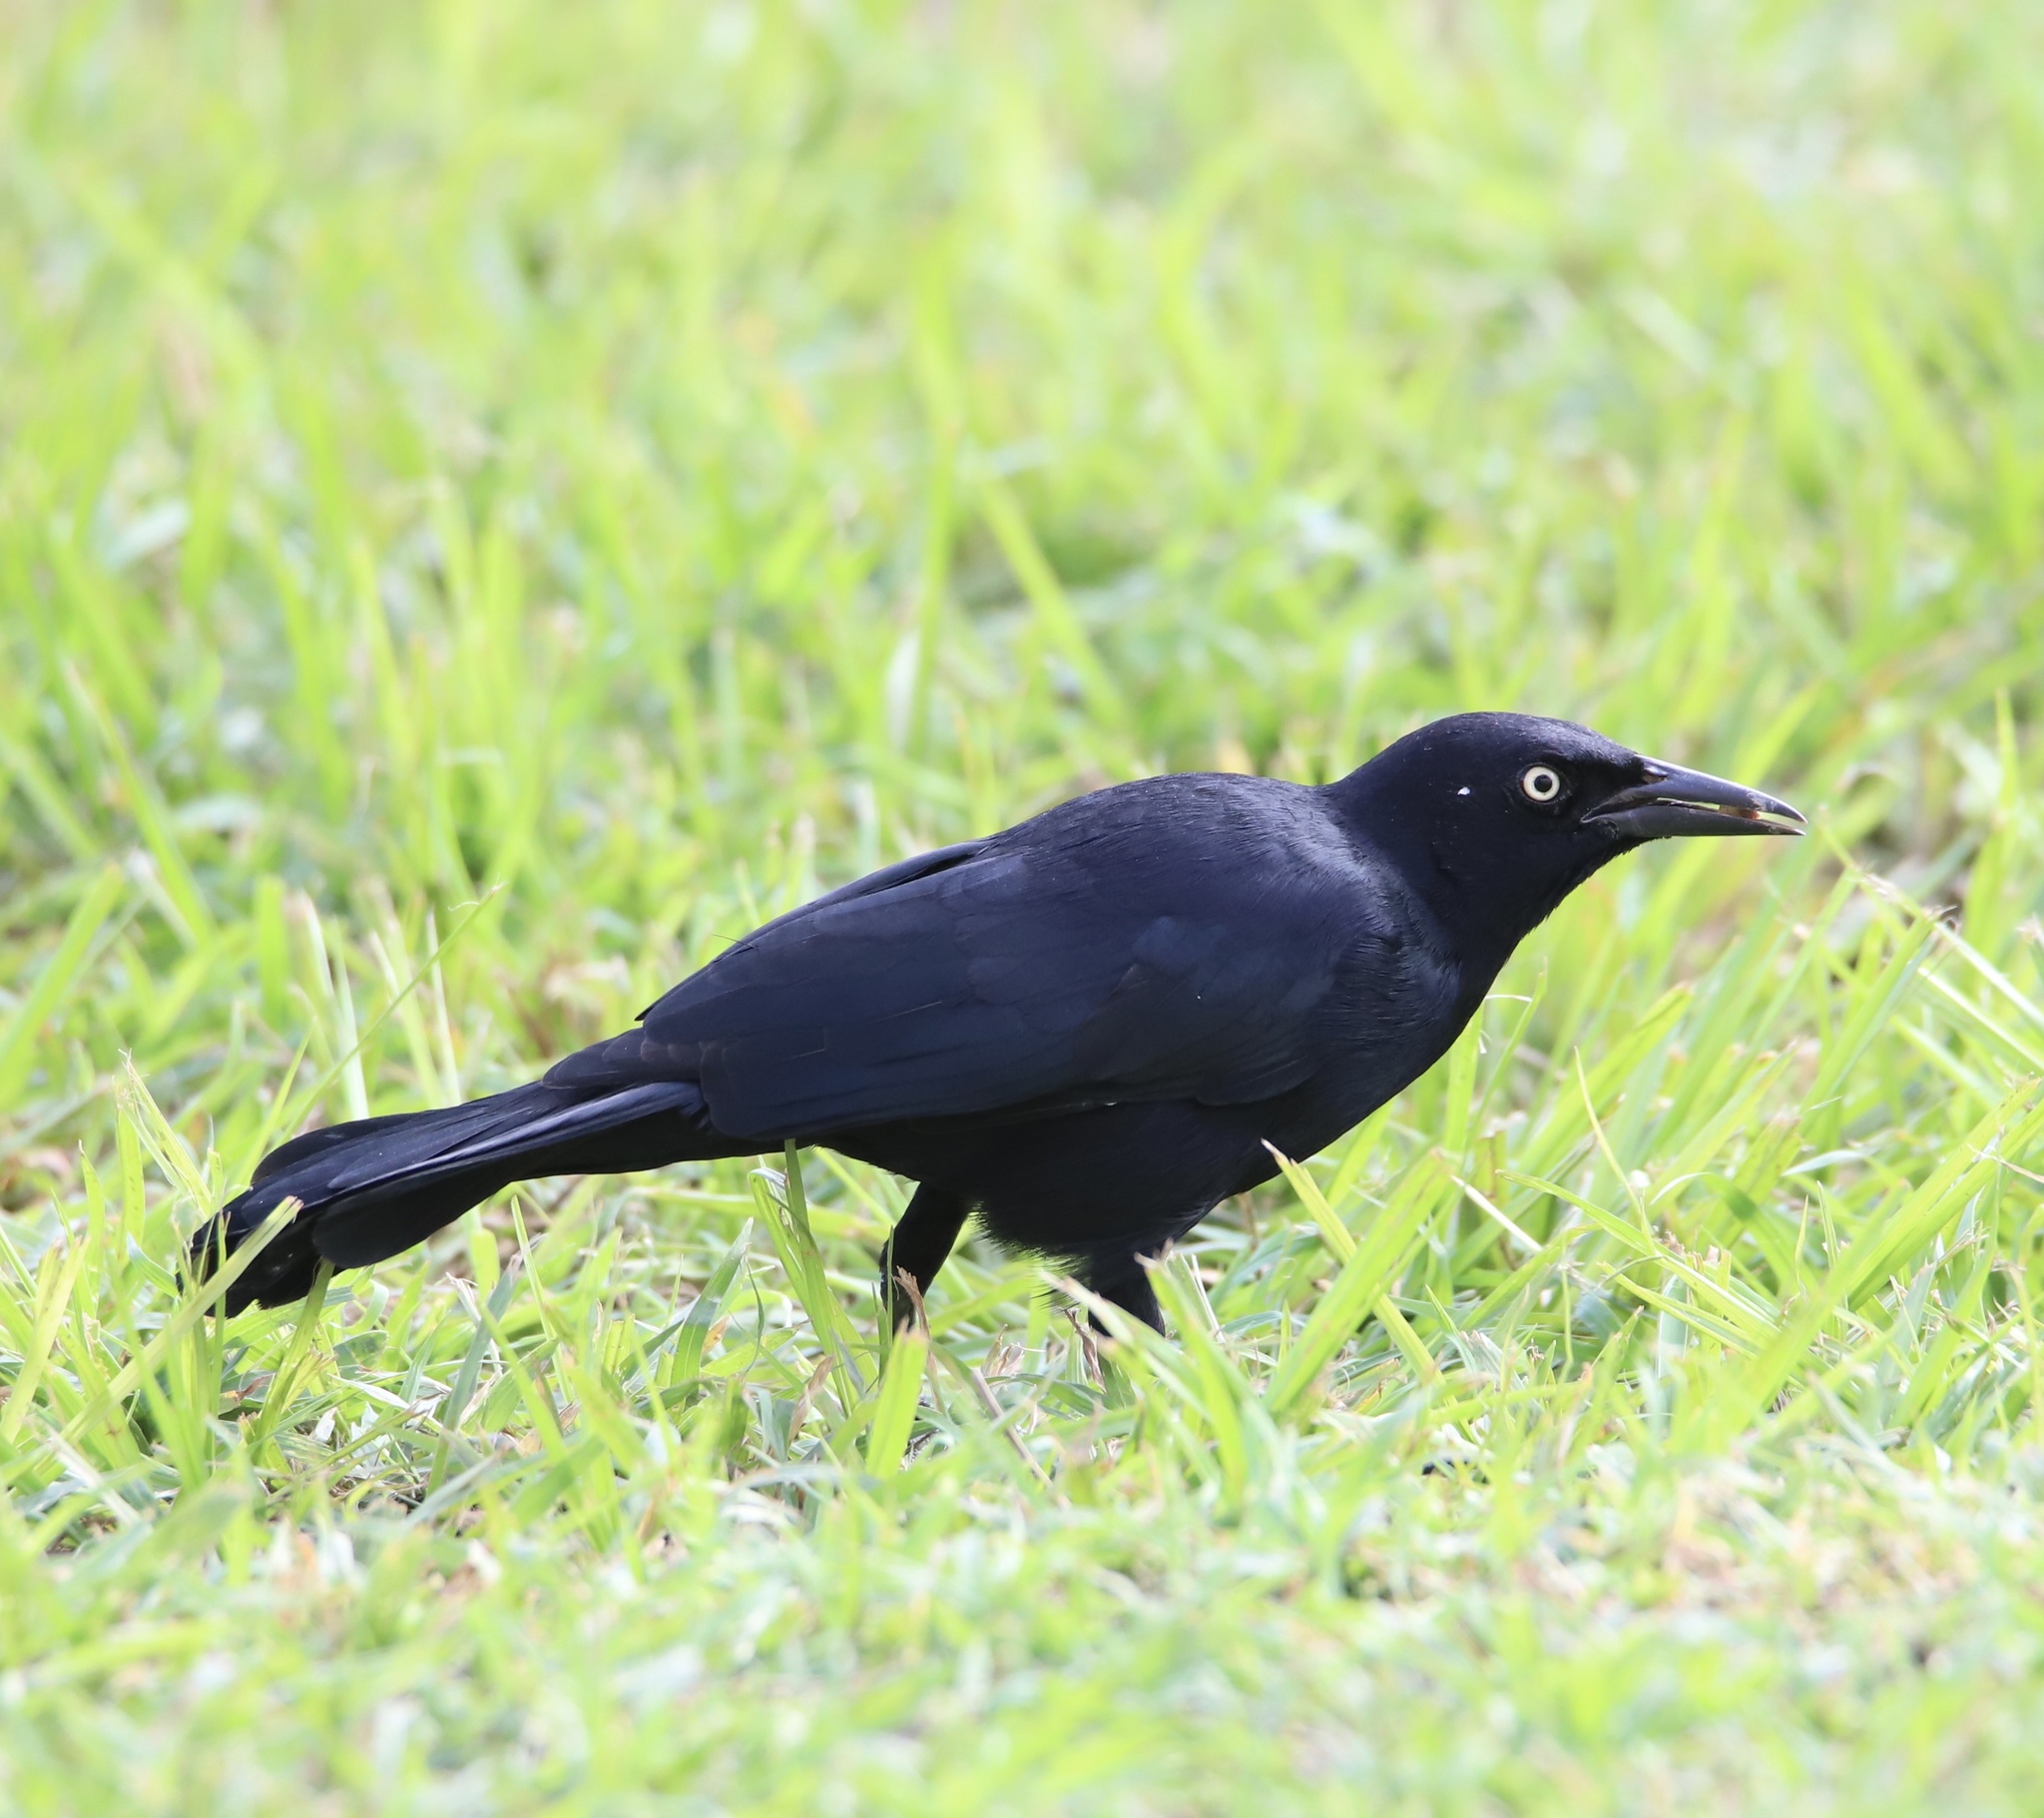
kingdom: Animalia
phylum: Chordata
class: Aves
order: Passeriformes
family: Icteridae
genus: Quiscalus
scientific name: Quiscalus niger
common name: Greater antillean grackle
